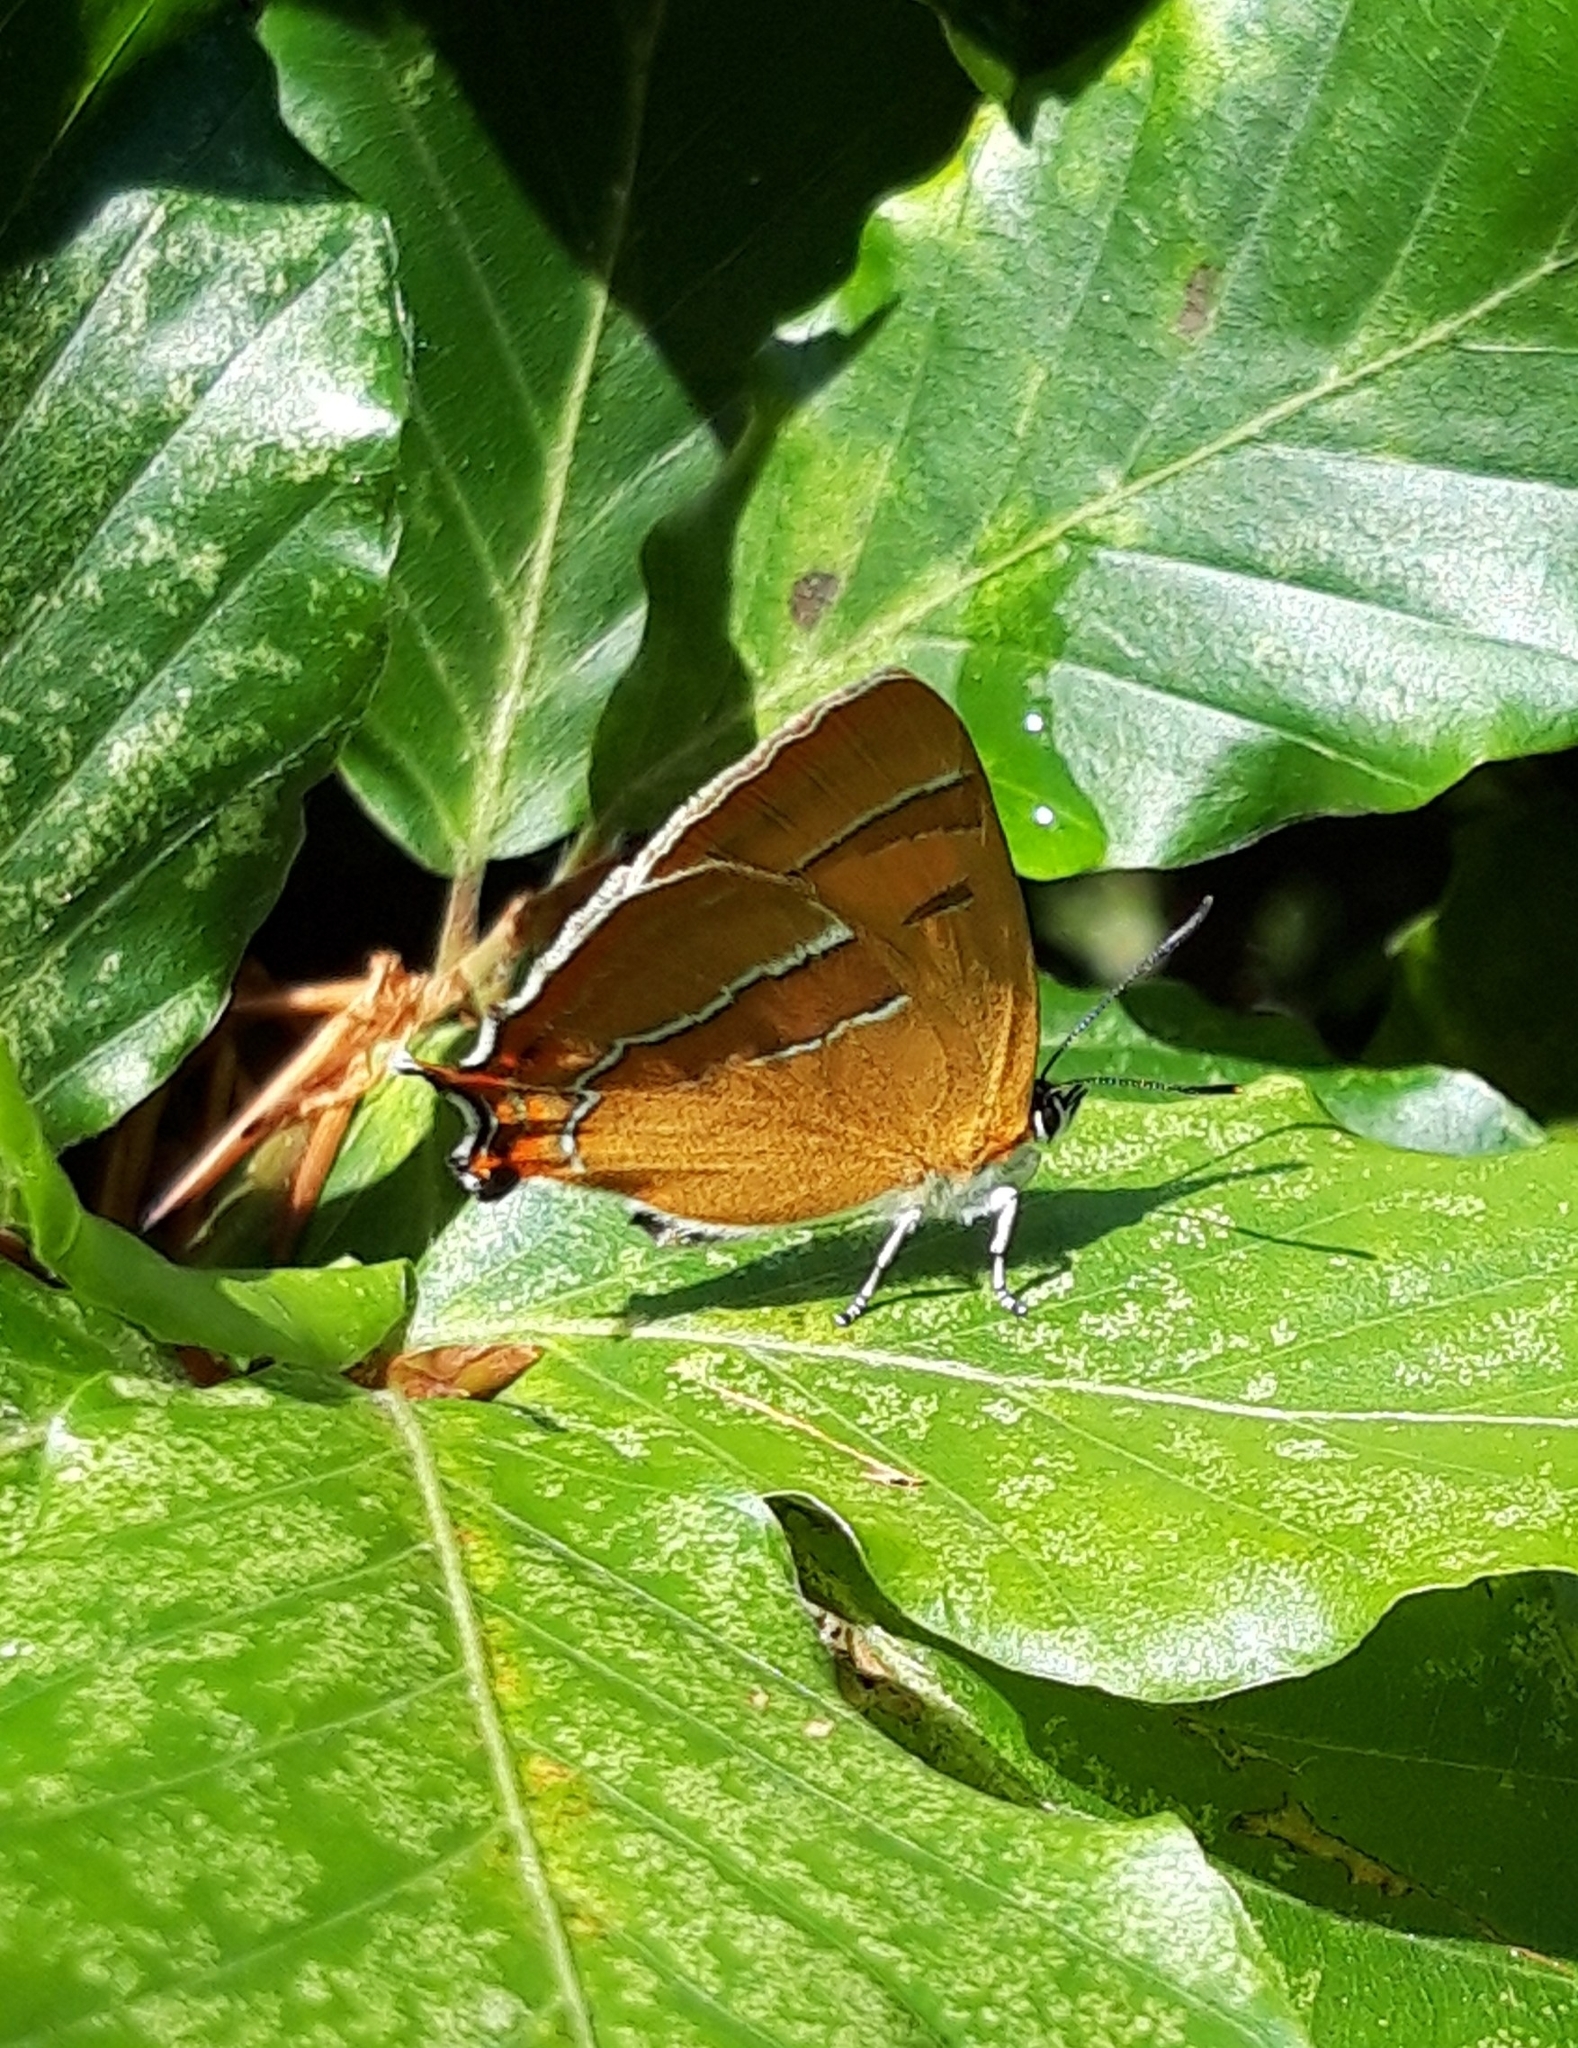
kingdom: Animalia
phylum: Arthropoda
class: Insecta
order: Lepidoptera
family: Lycaenidae
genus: Thecla
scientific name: Thecla betulae
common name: Brown hairstreak
